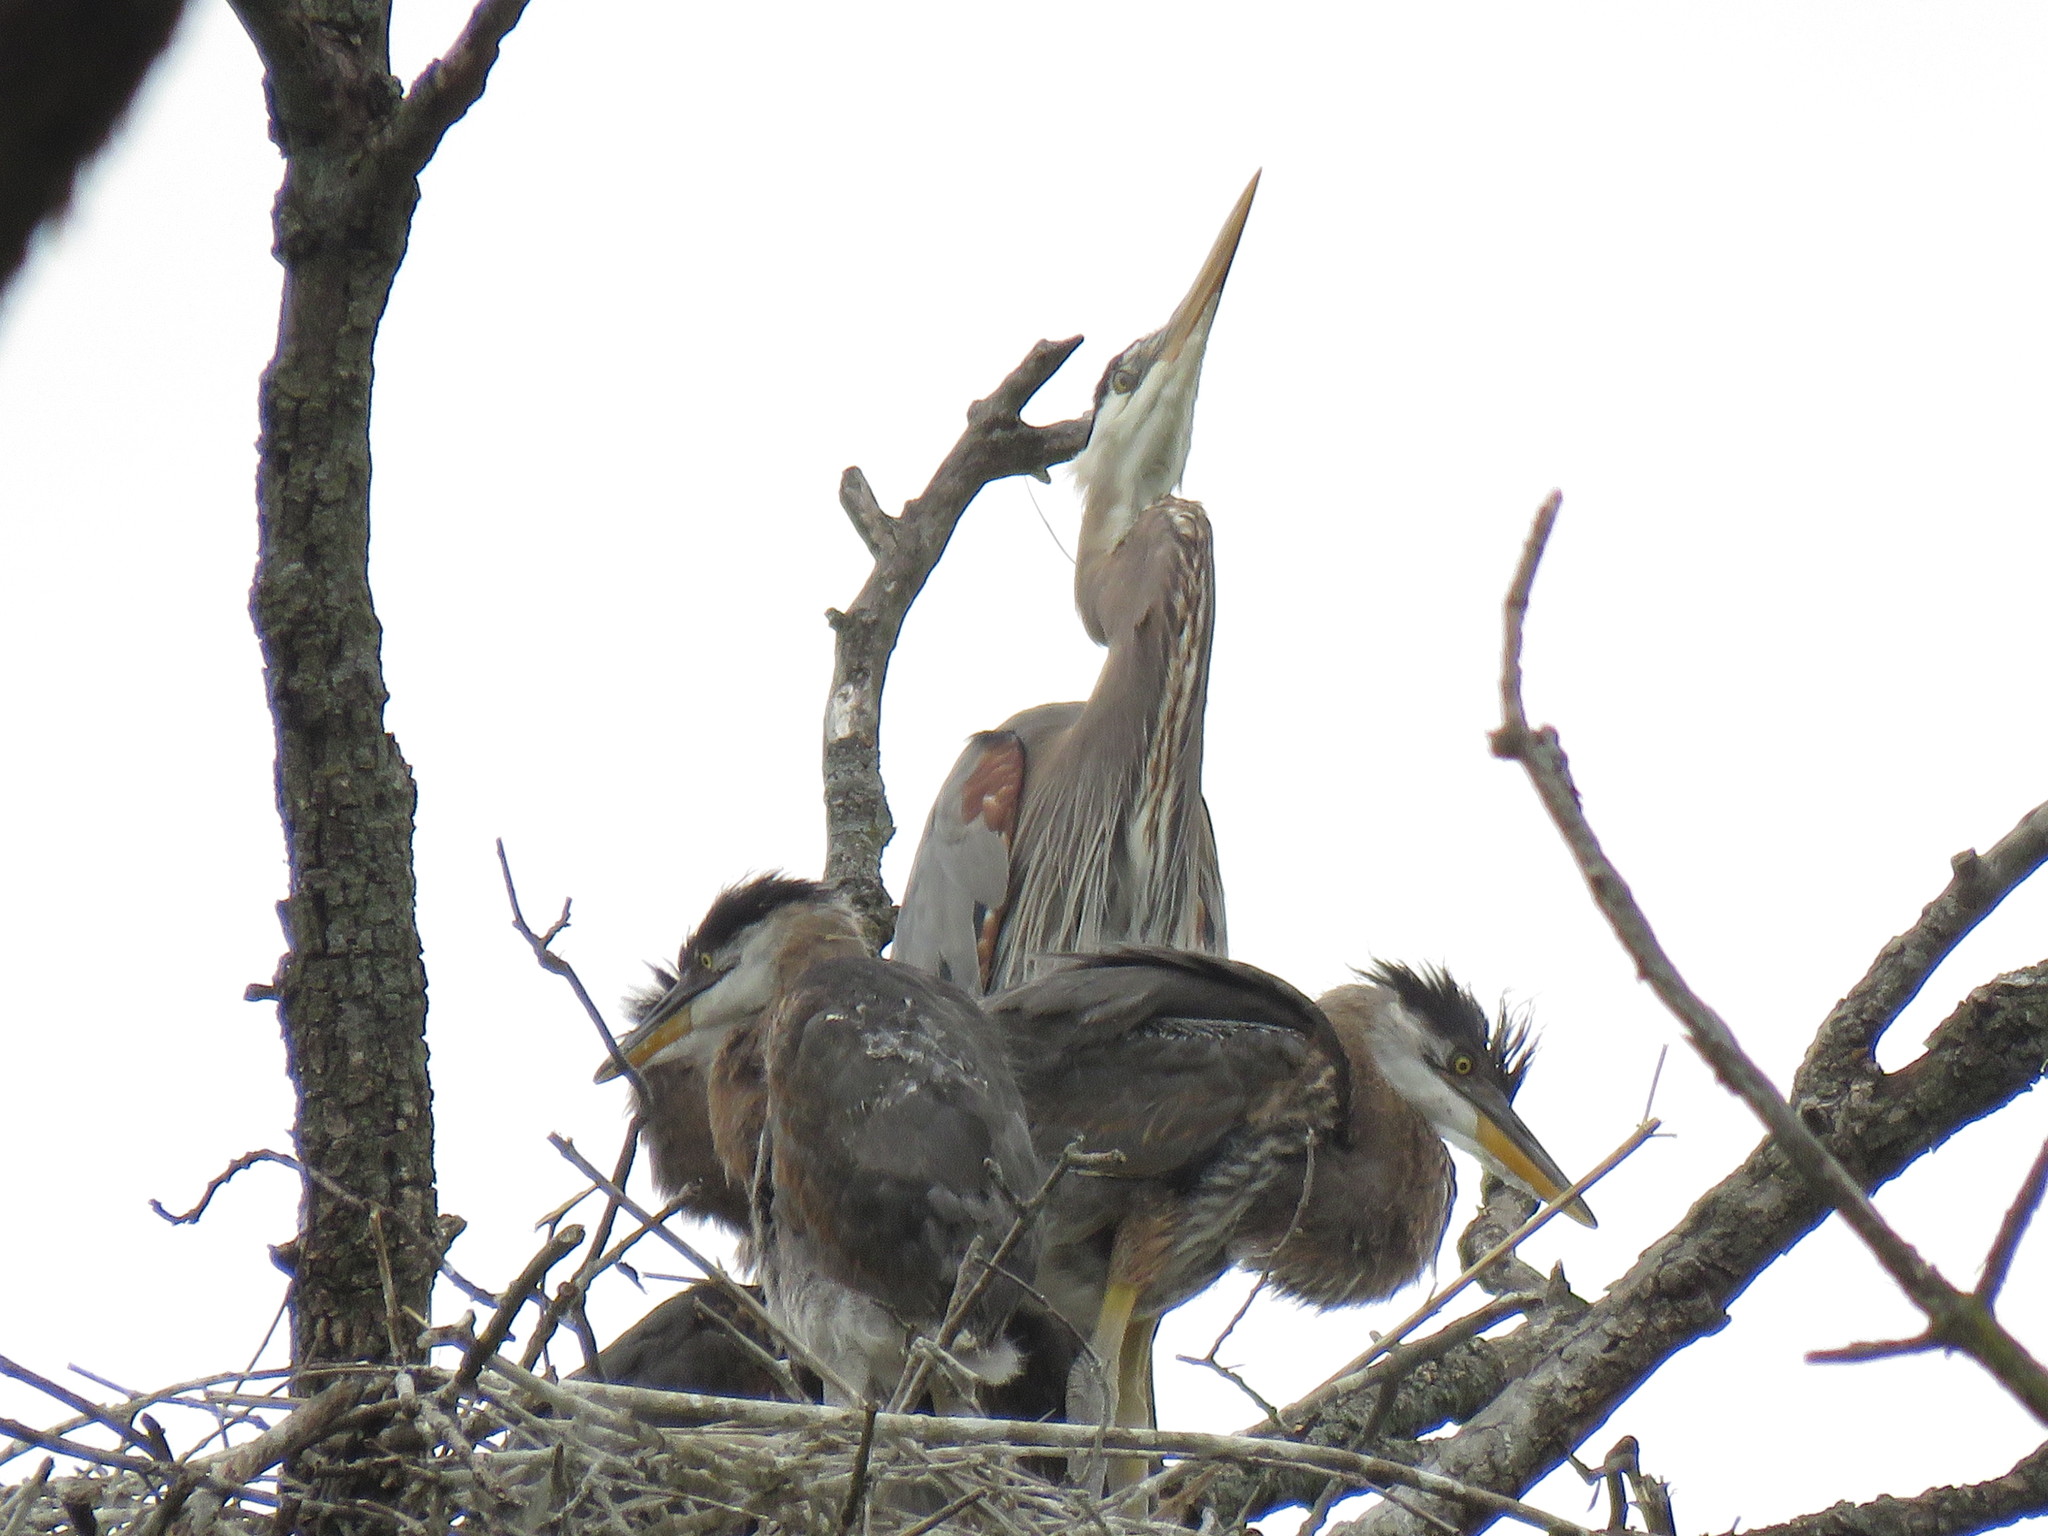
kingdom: Animalia
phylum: Chordata
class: Aves
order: Pelecaniformes
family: Ardeidae
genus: Ardea
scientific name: Ardea herodias
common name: Great blue heron
